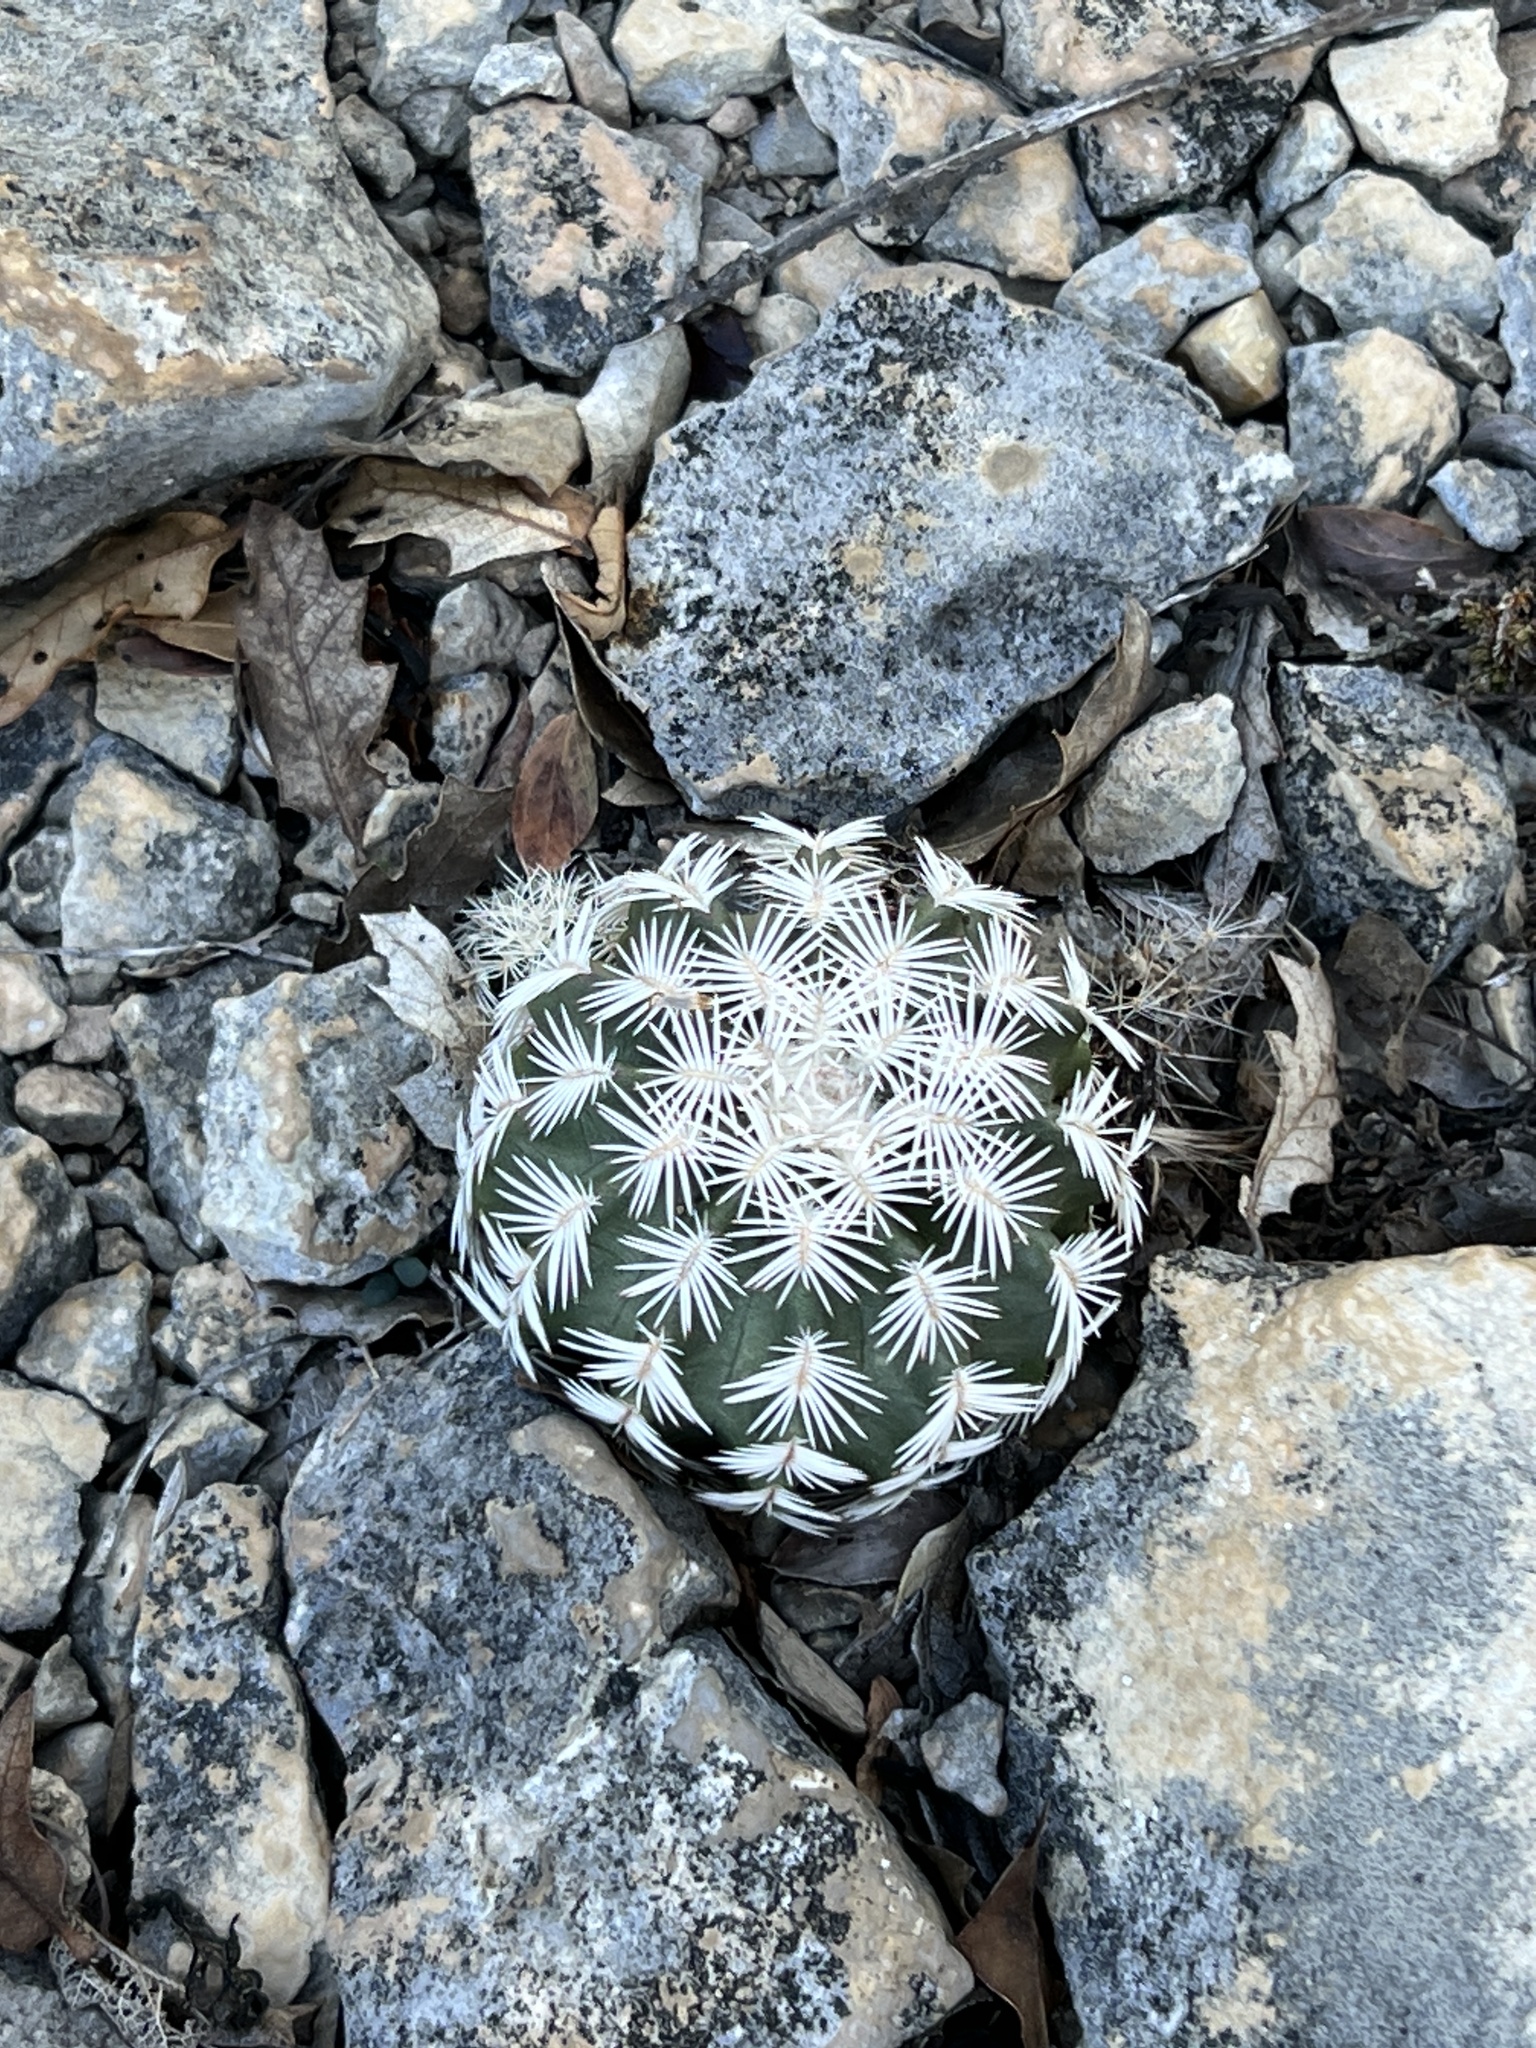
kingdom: Plantae
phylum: Tracheophyta
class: Magnoliopsida
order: Caryophyllales
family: Cactaceae
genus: Echinocereus
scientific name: Echinocereus reichenbachii
